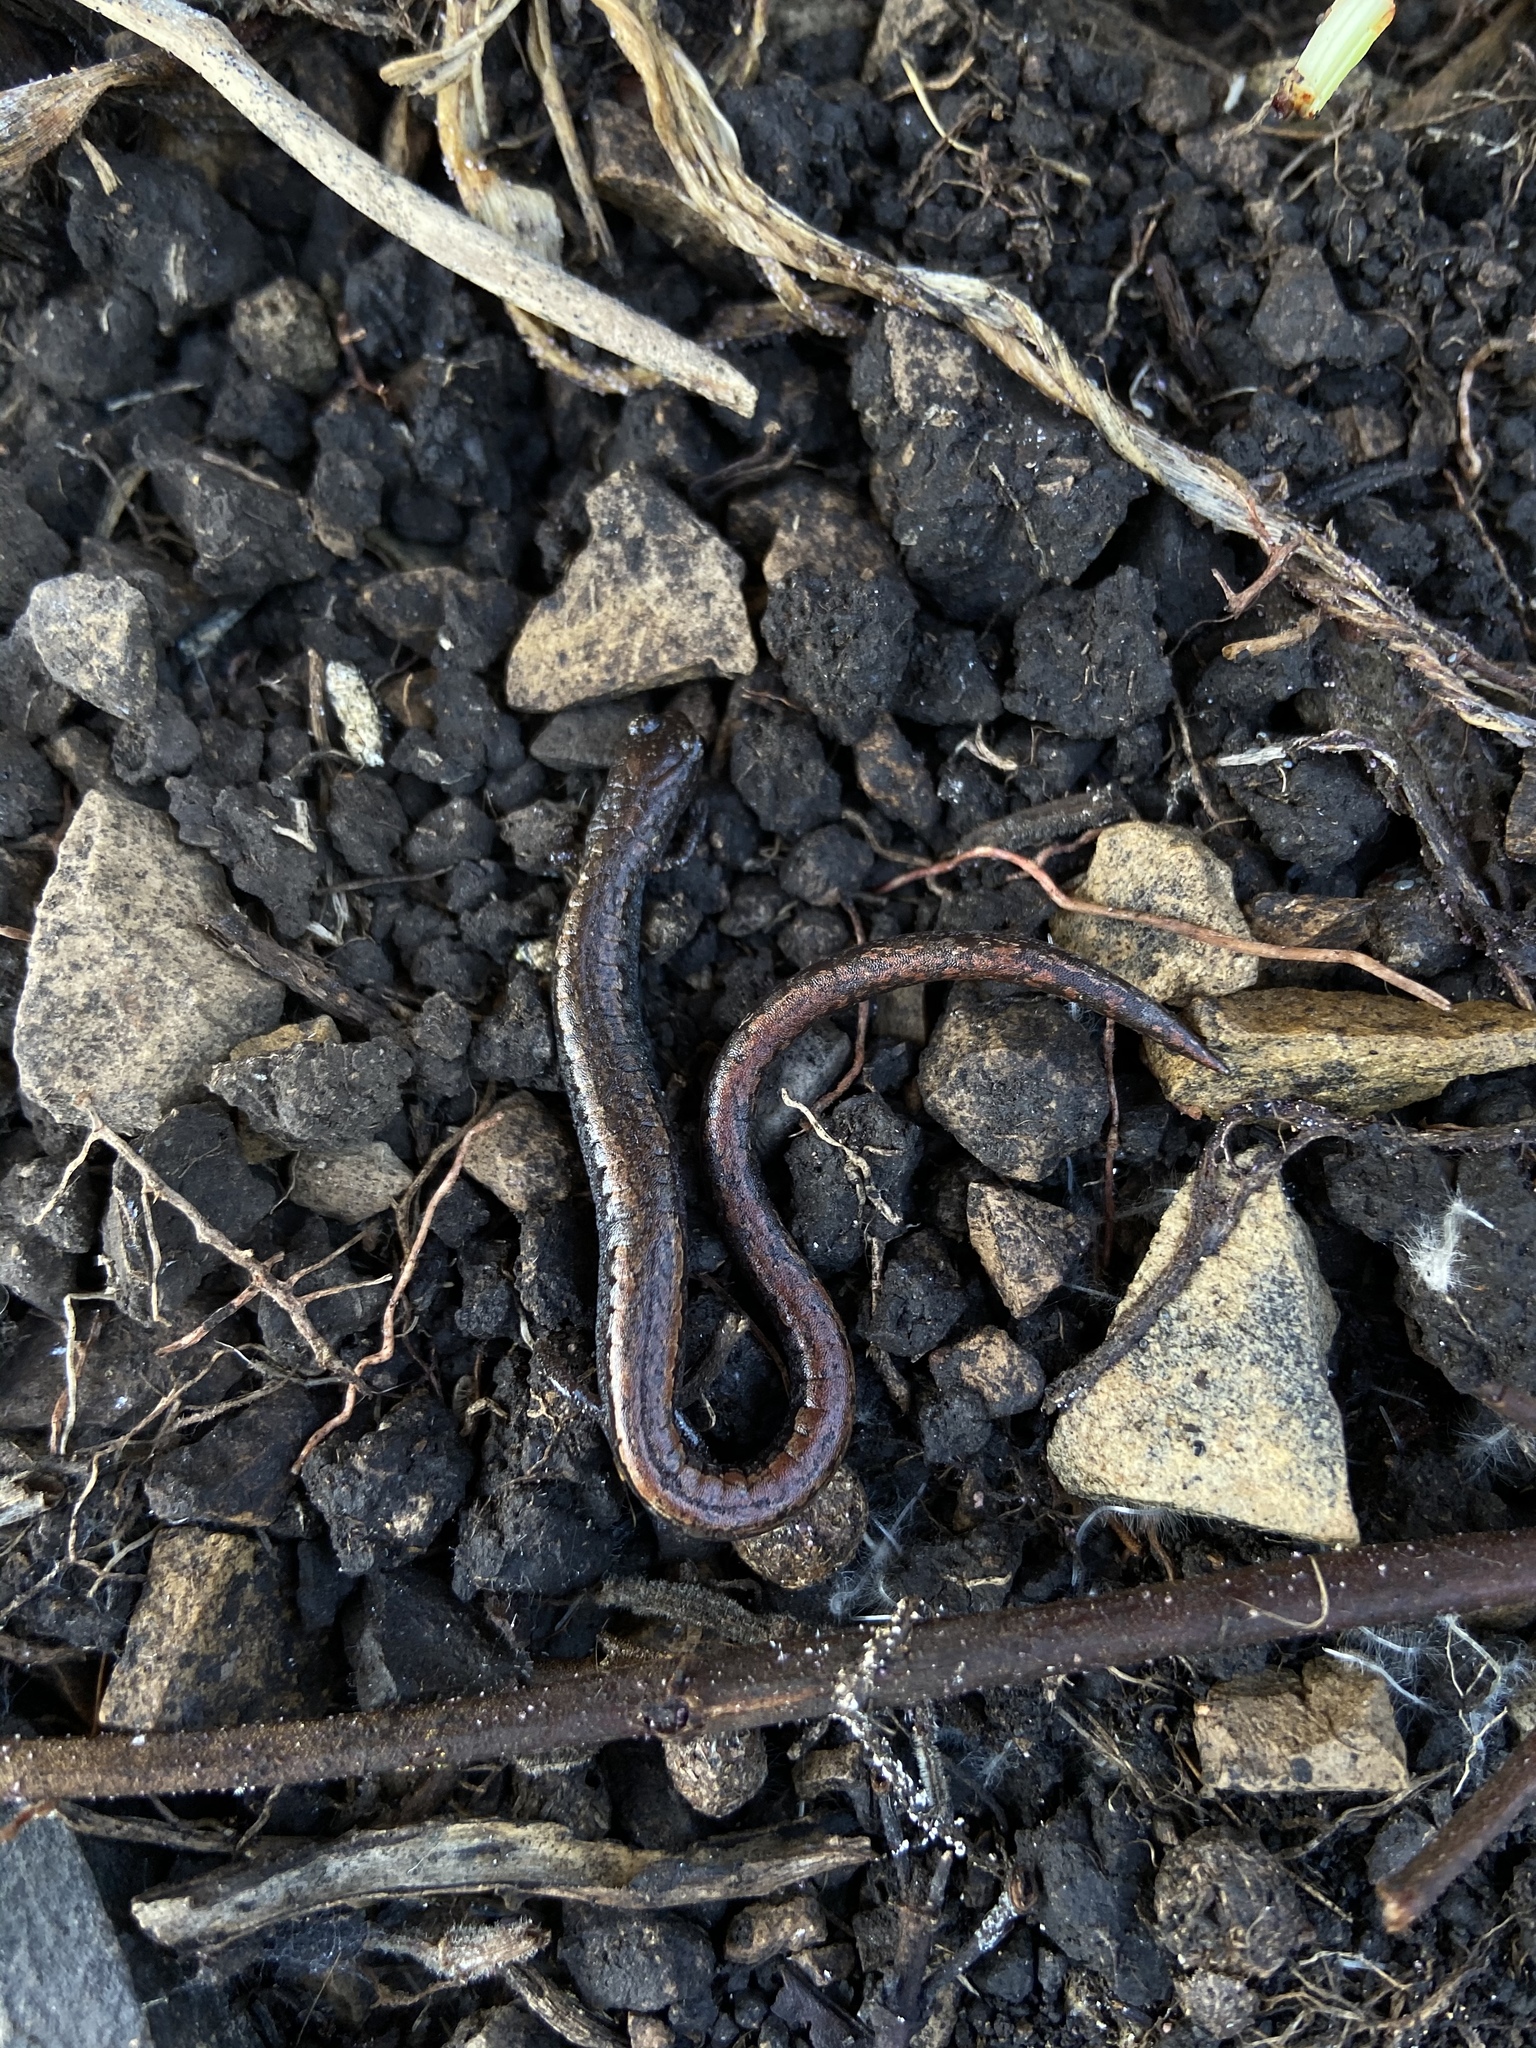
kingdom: Animalia
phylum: Chordata
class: Amphibia
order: Caudata
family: Plethodontidae
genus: Batrachoseps
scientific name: Batrachoseps attenuatus
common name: California slender salamander
